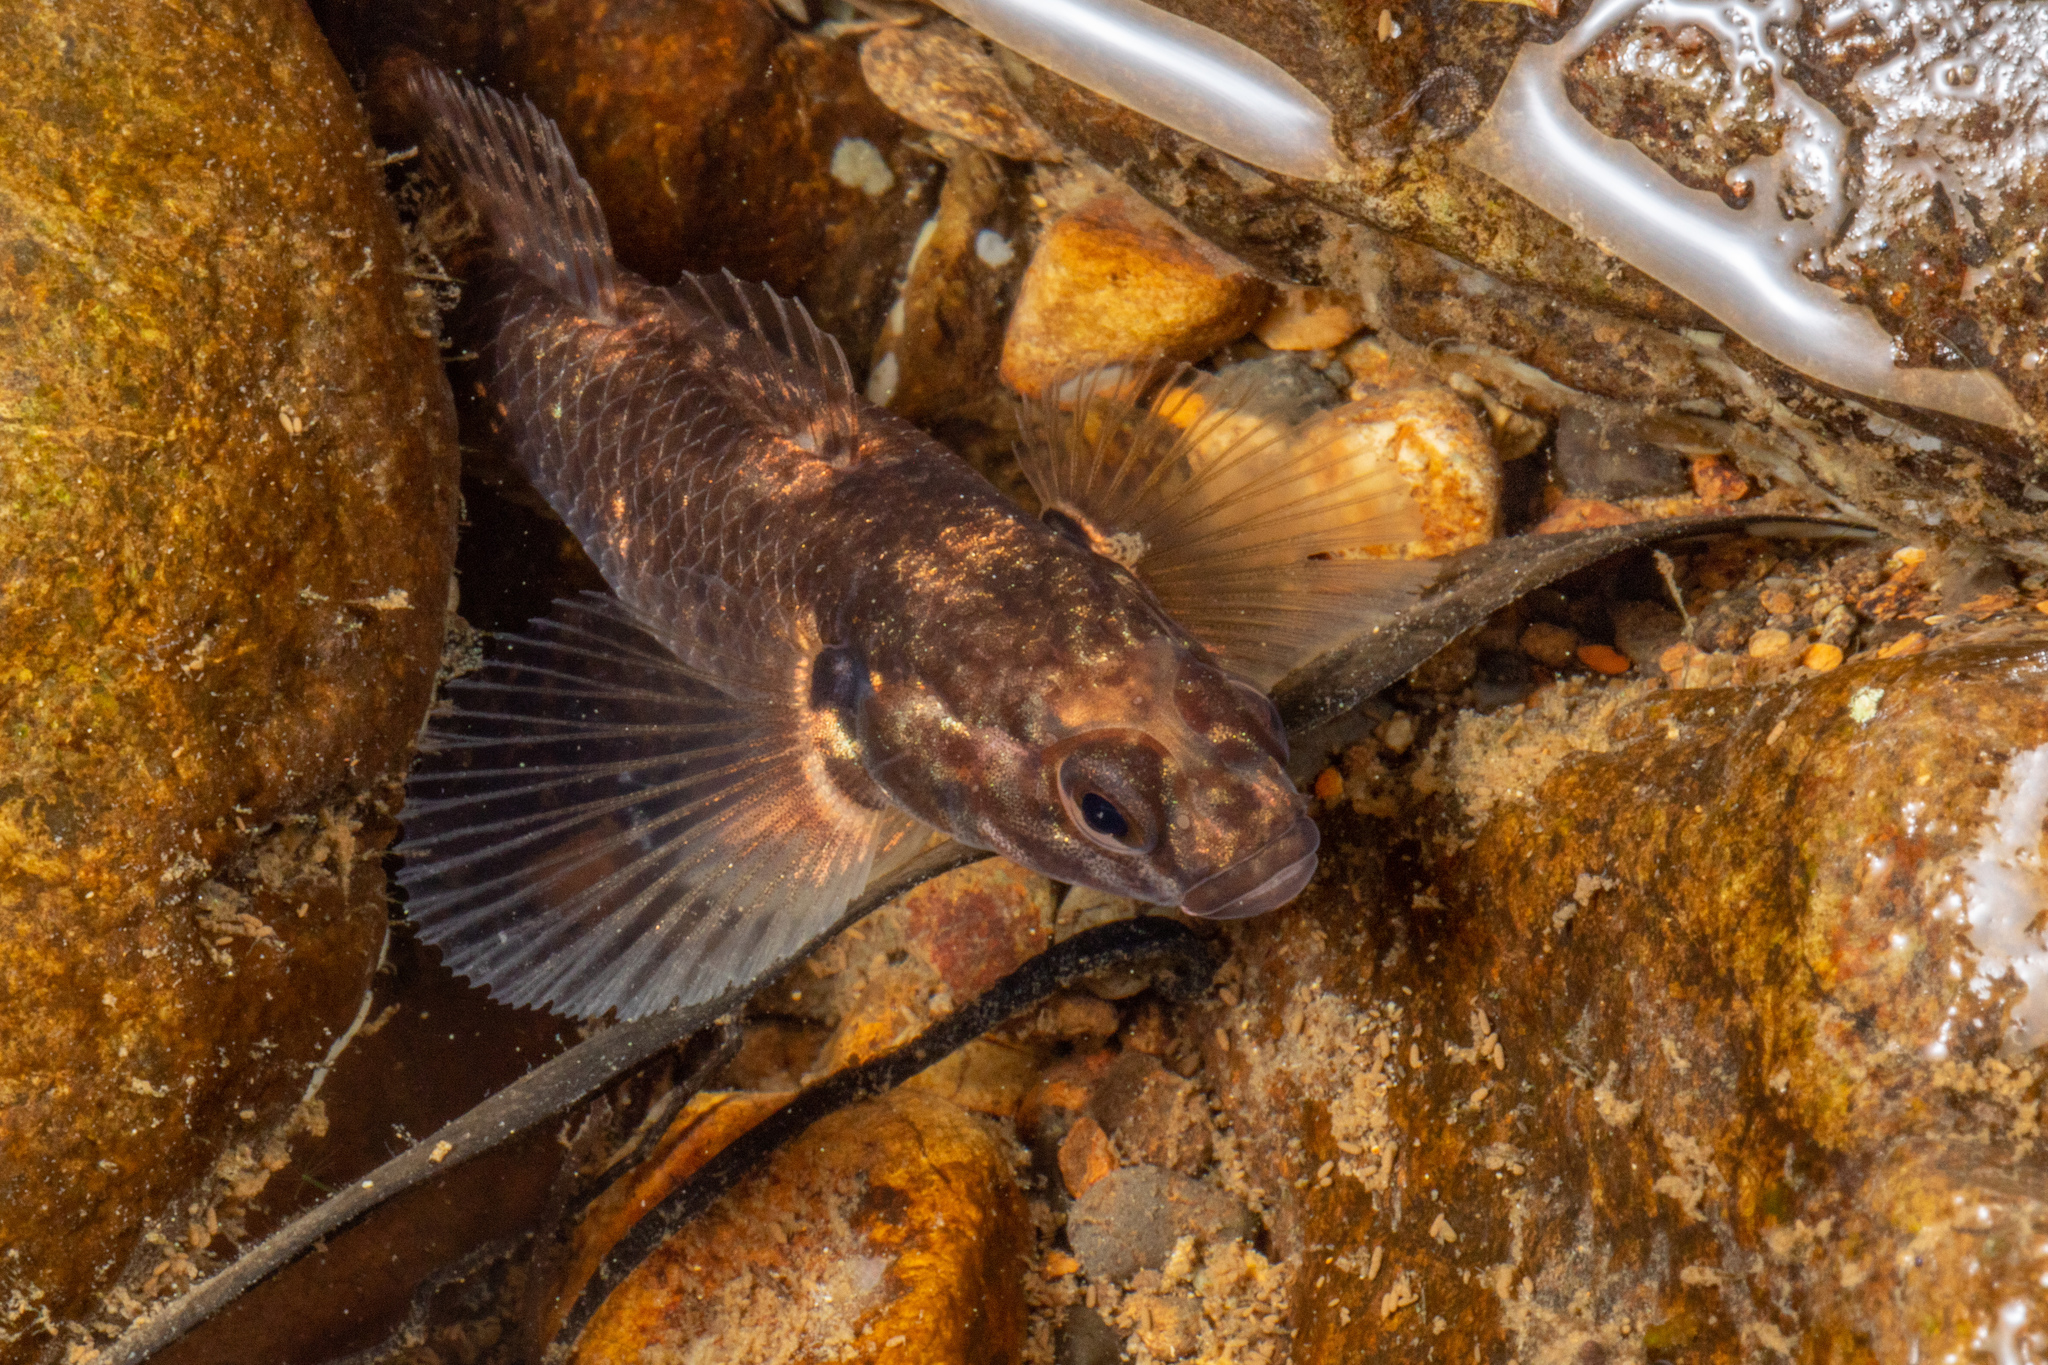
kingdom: Animalia
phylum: Chordata
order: Perciformes
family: Eleotridae
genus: Gobiomorphus
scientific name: Gobiomorphus huttoni
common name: Redfin bully
